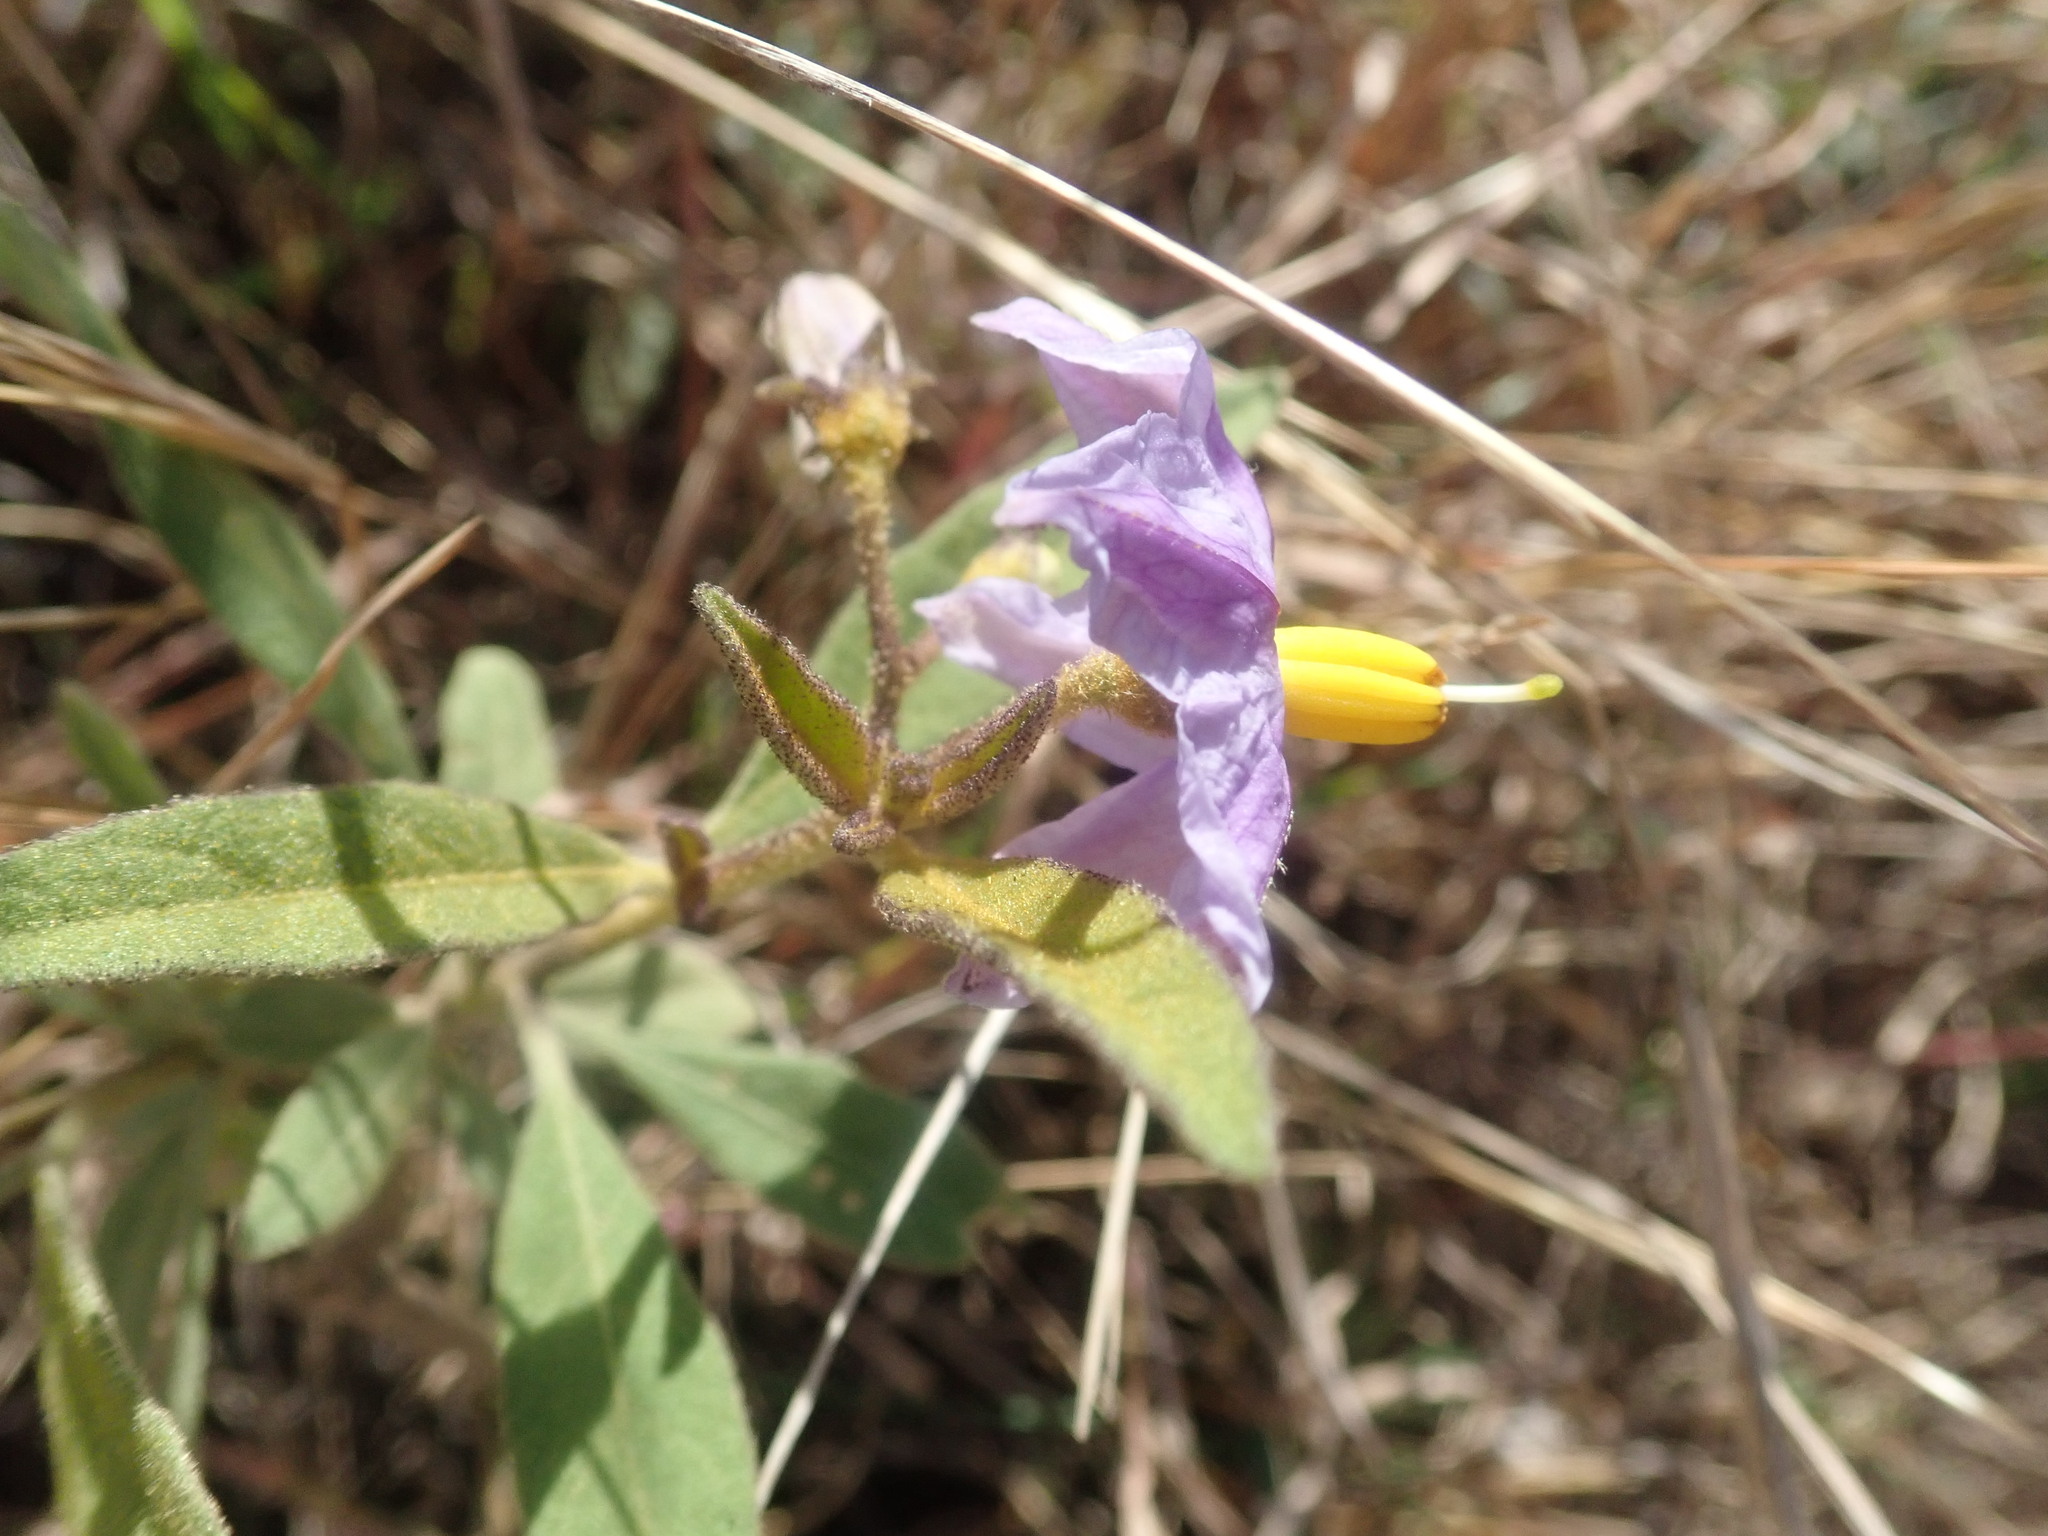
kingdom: Plantae
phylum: Tracheophyta
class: Magnoliopsida
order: Solanales
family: Solanaceae
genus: Solanum
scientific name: Solanum campylacanthum
